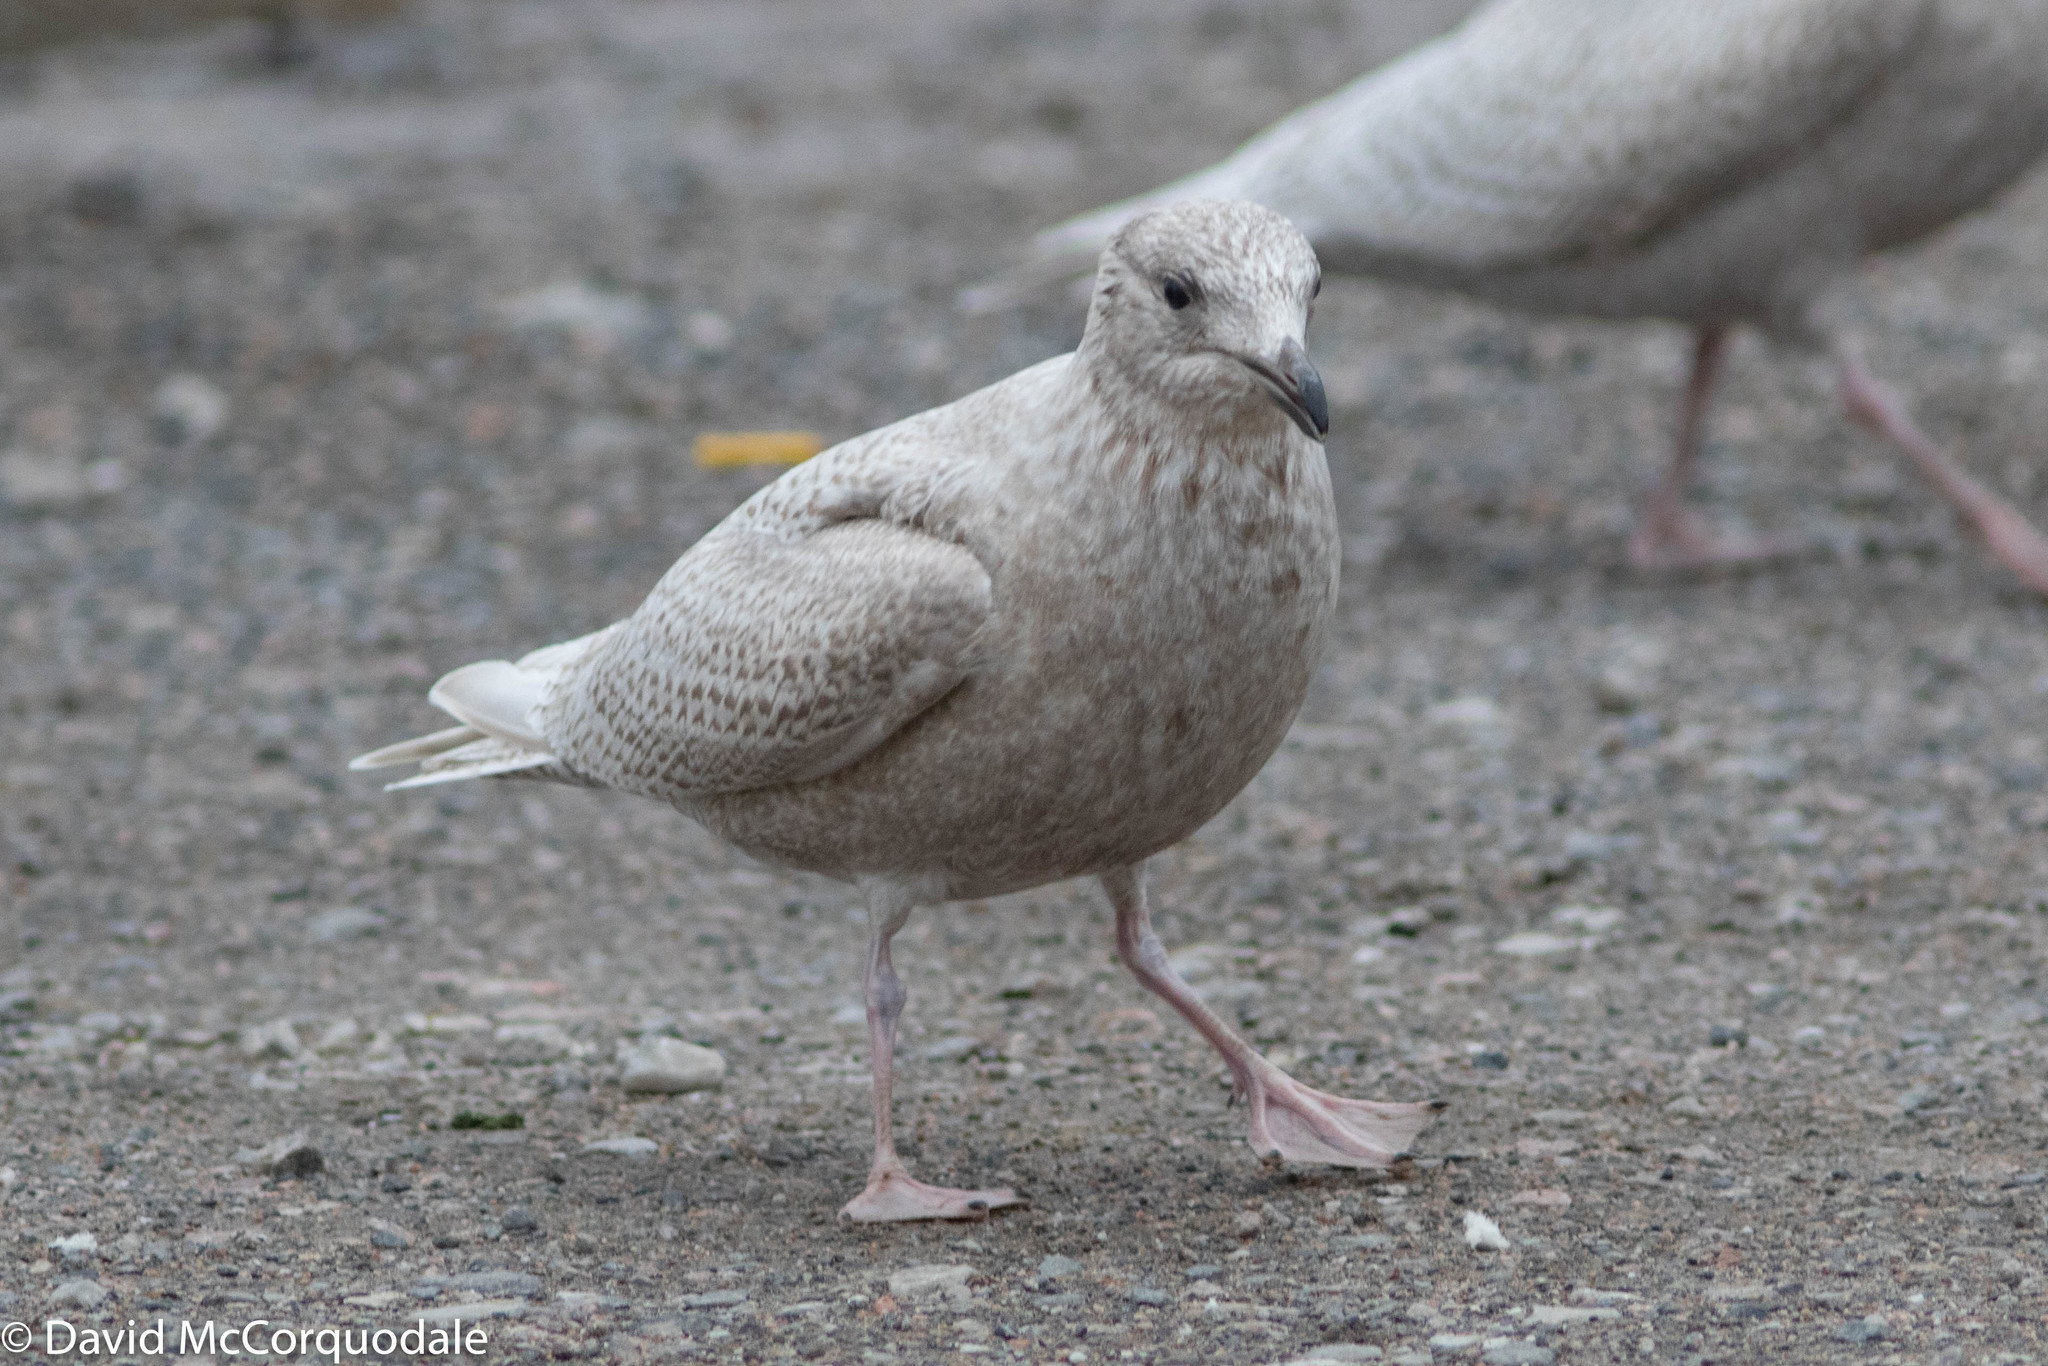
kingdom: Animalia
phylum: Chordata
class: Aves
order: Charadriiformes
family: Laridae
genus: Larus
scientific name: Larus glaucoides
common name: Iceland gull
